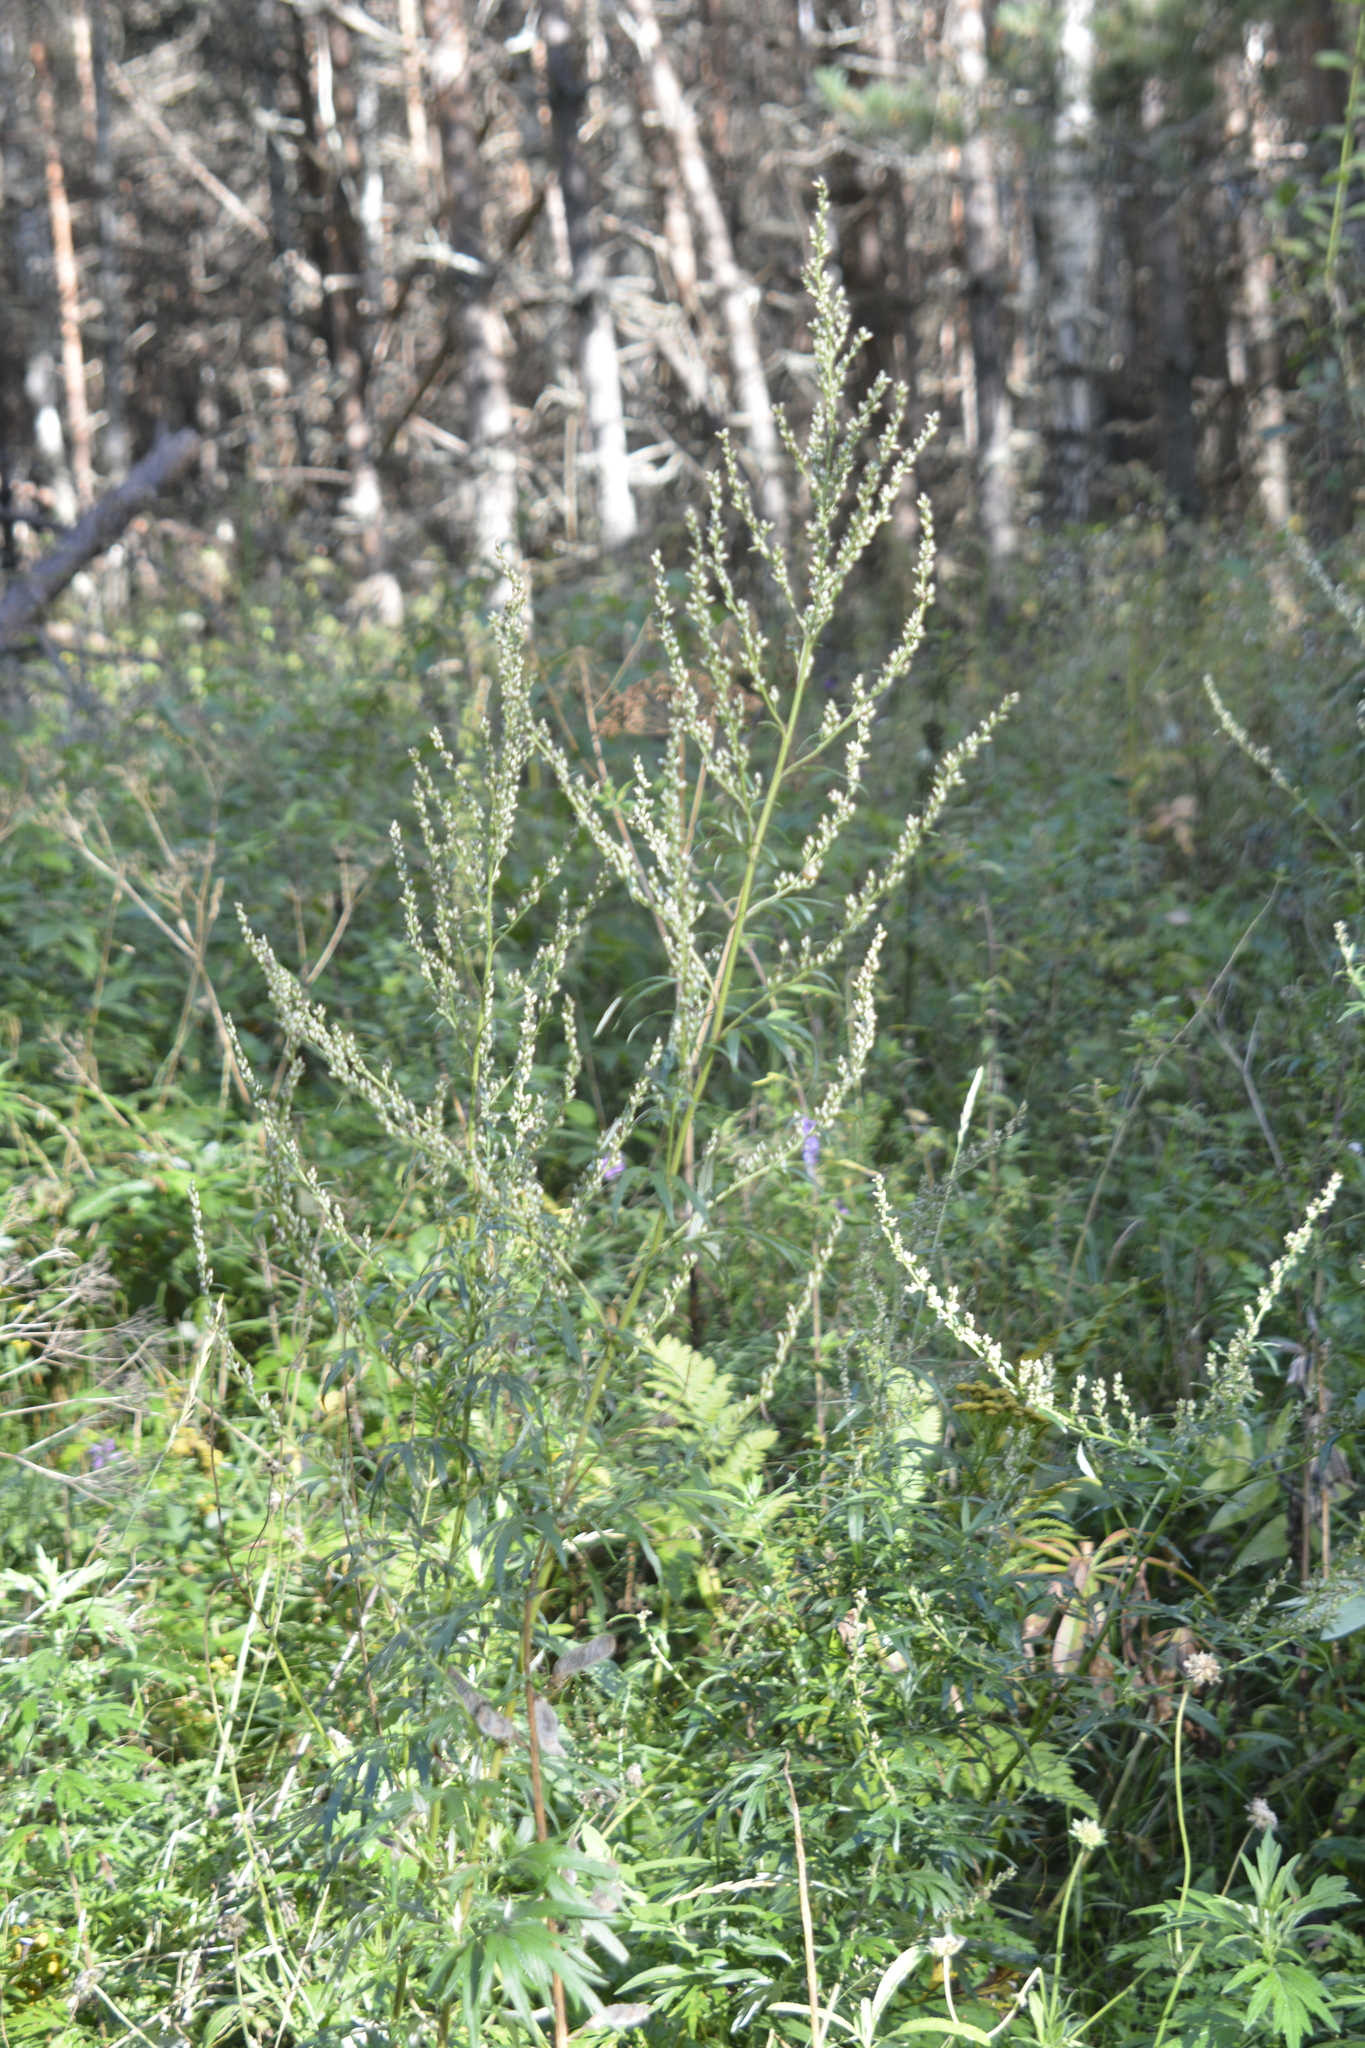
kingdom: Plantae
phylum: Tracheophyta
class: Magnoliopsida
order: Asterales
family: Asteraceae
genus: Artemisia
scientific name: Artemisia vulgaris
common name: Mugwort
